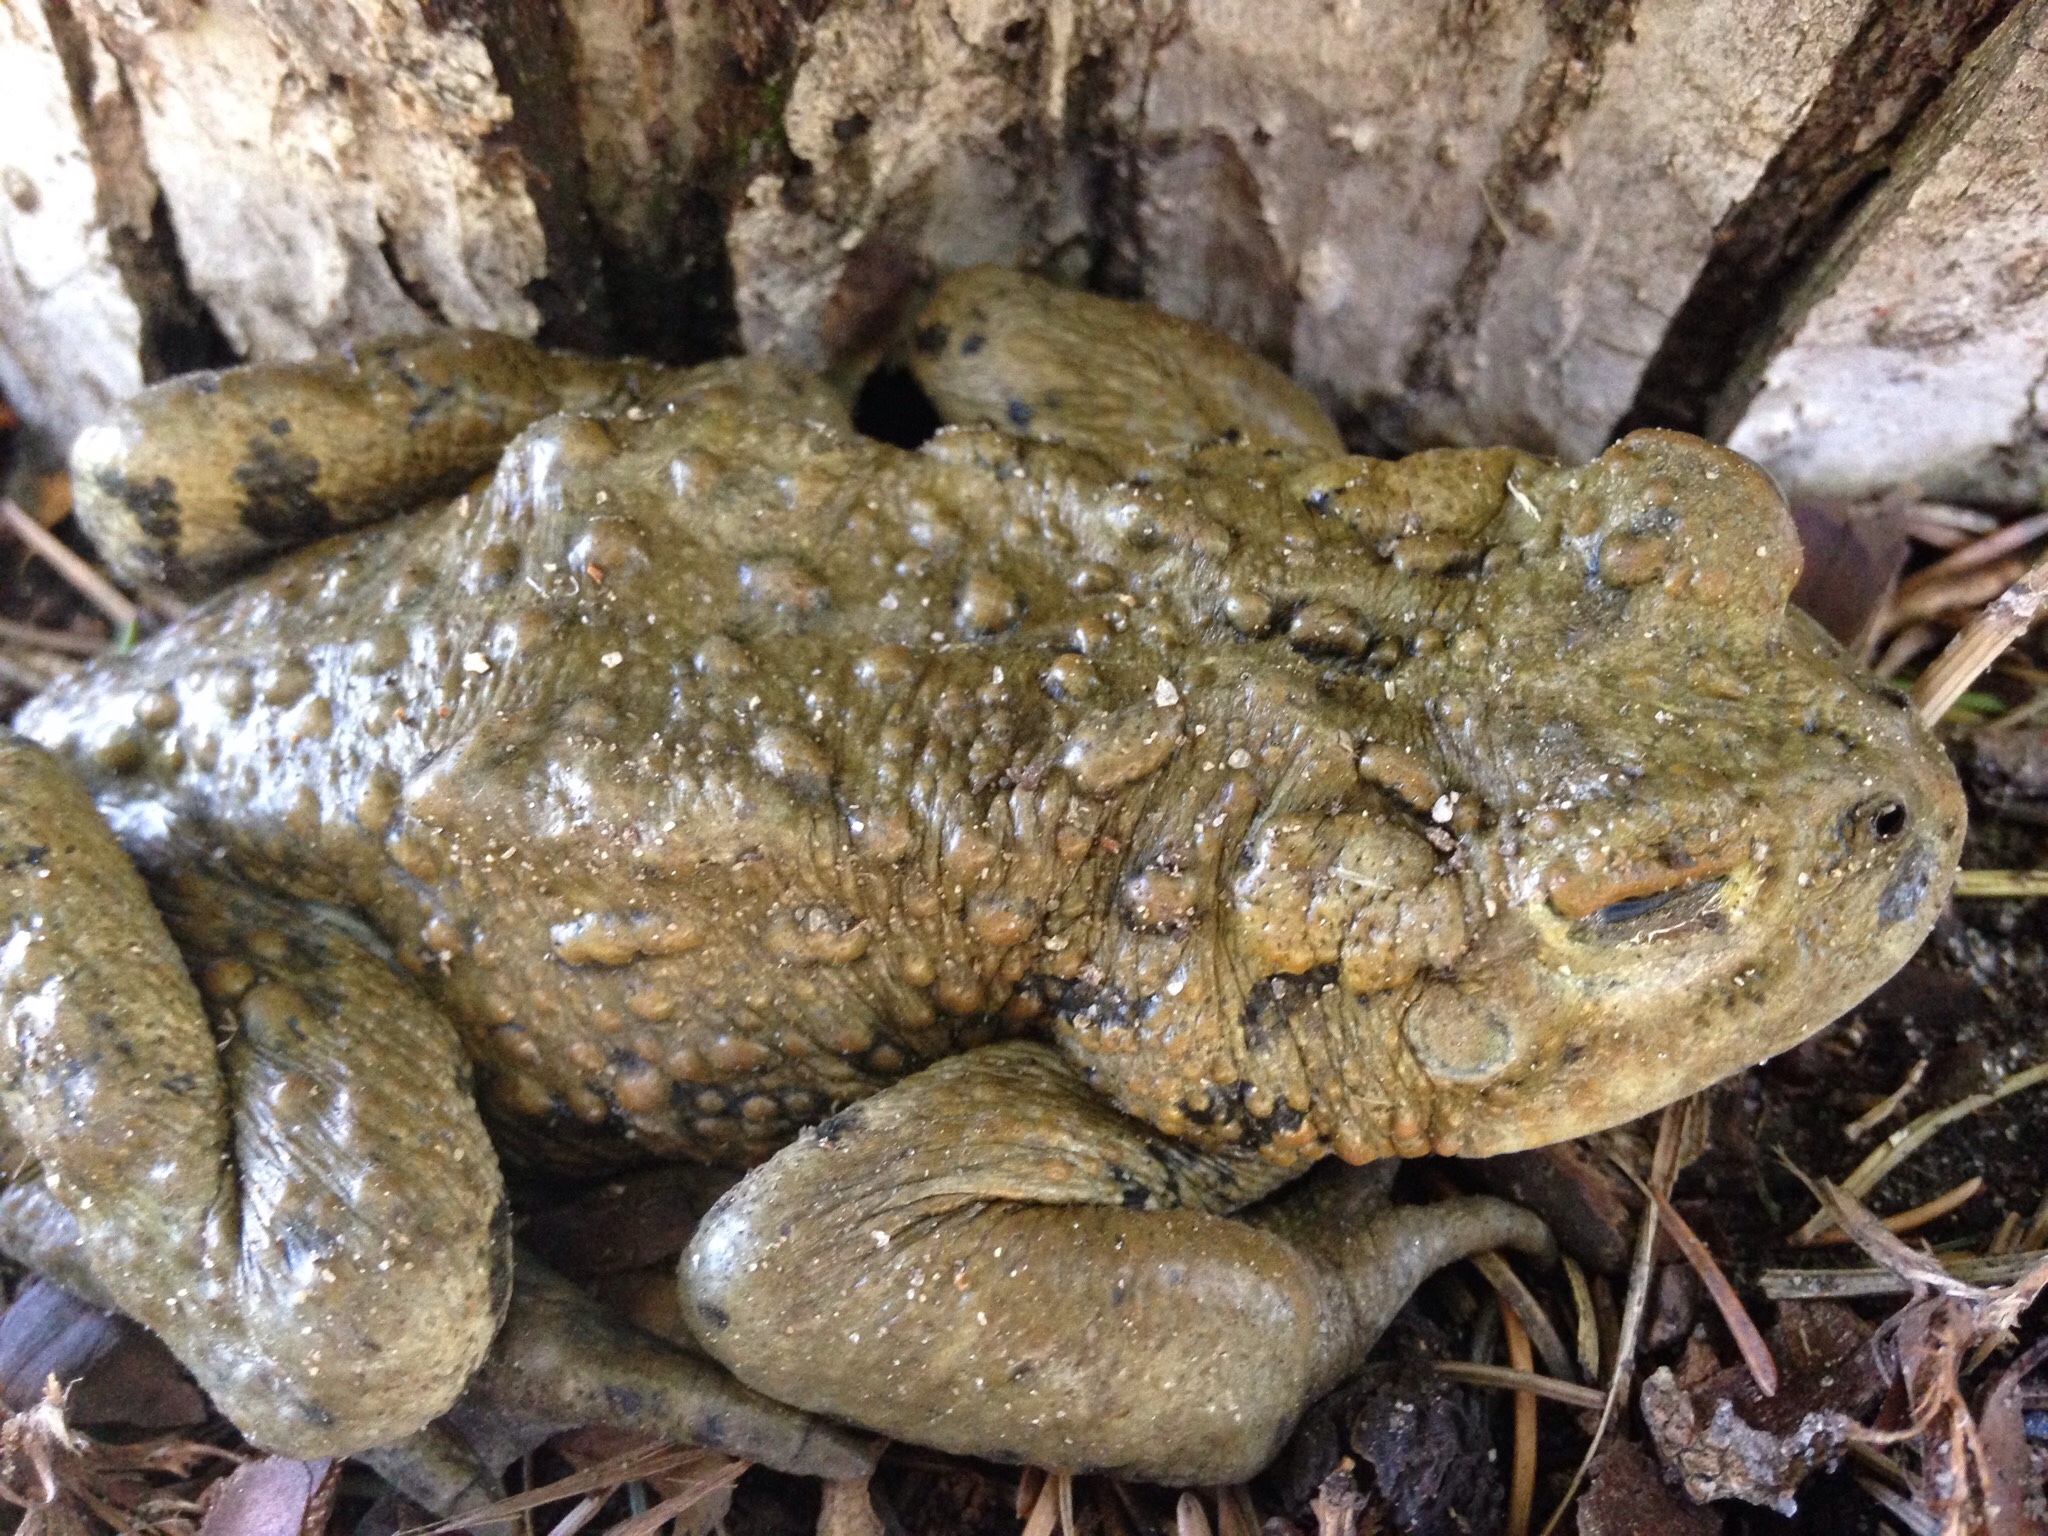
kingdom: Animalia
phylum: Chordata
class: Amphibia
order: Anura
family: Bufonidae
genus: Anaxyrus
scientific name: Anaxyrus boreas
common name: Western toad
